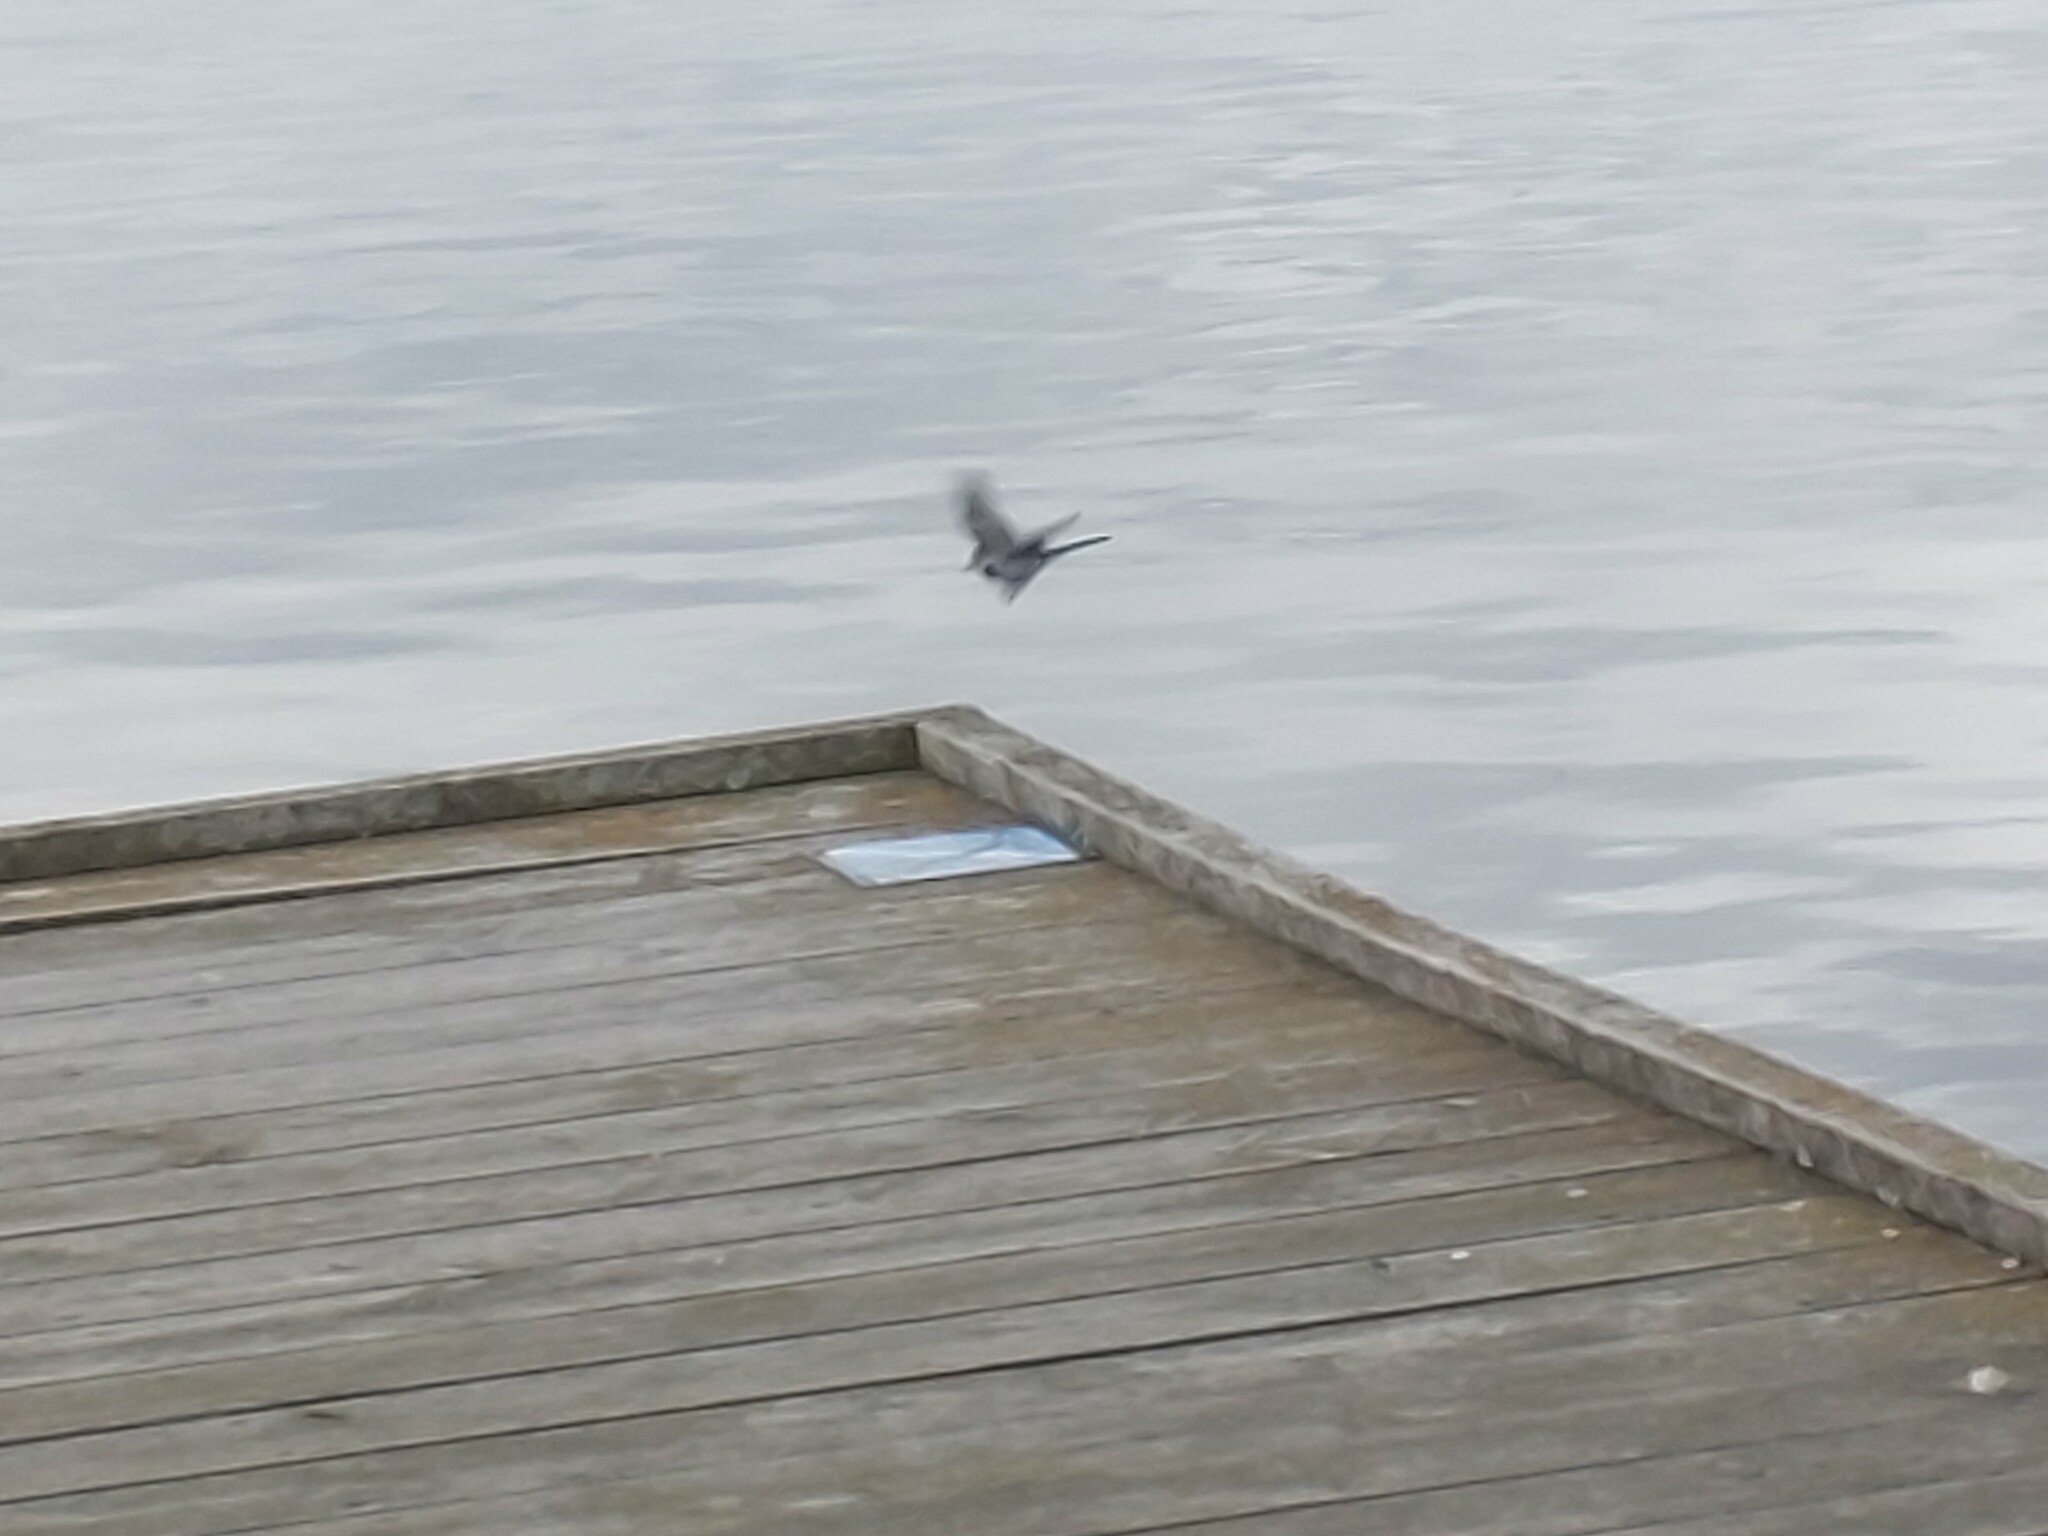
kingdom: Animalia
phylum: Chordata
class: Aves
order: Passeriformes
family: Motacillidae
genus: Motacilla
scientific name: Motacilla alba
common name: White wagtail
